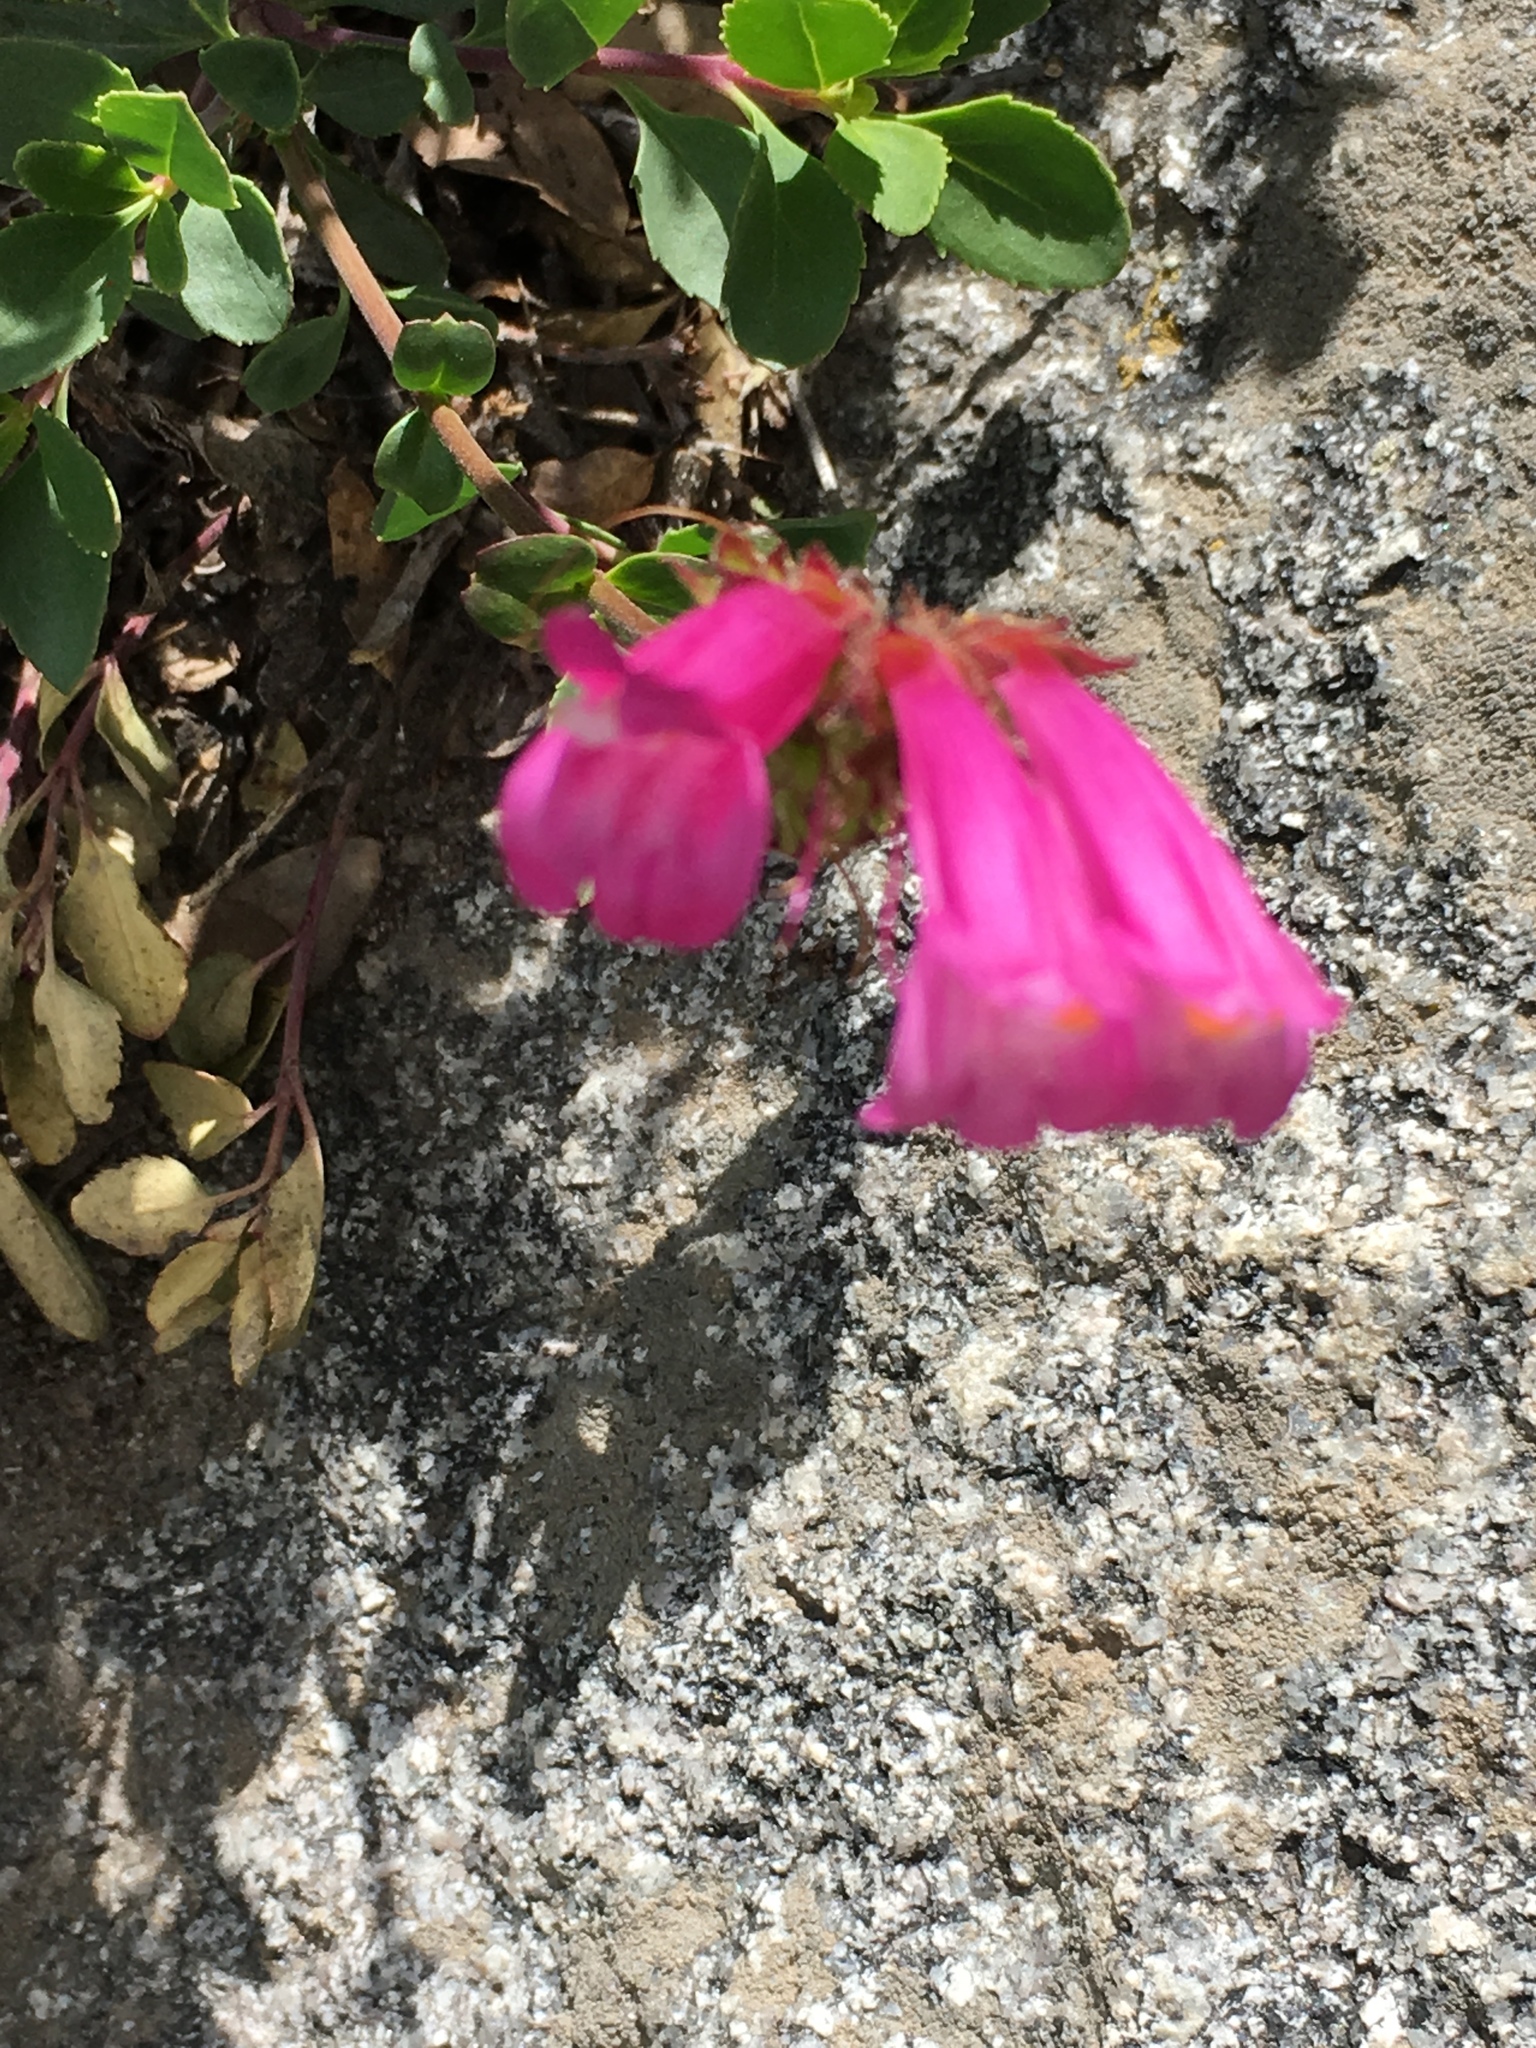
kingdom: Plantae
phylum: Tracheophyta
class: Magnoliopsida
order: Lamiales
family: Plantaginaceae
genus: Penstemon
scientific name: Penstemon newberryi
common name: Mountain-pride
